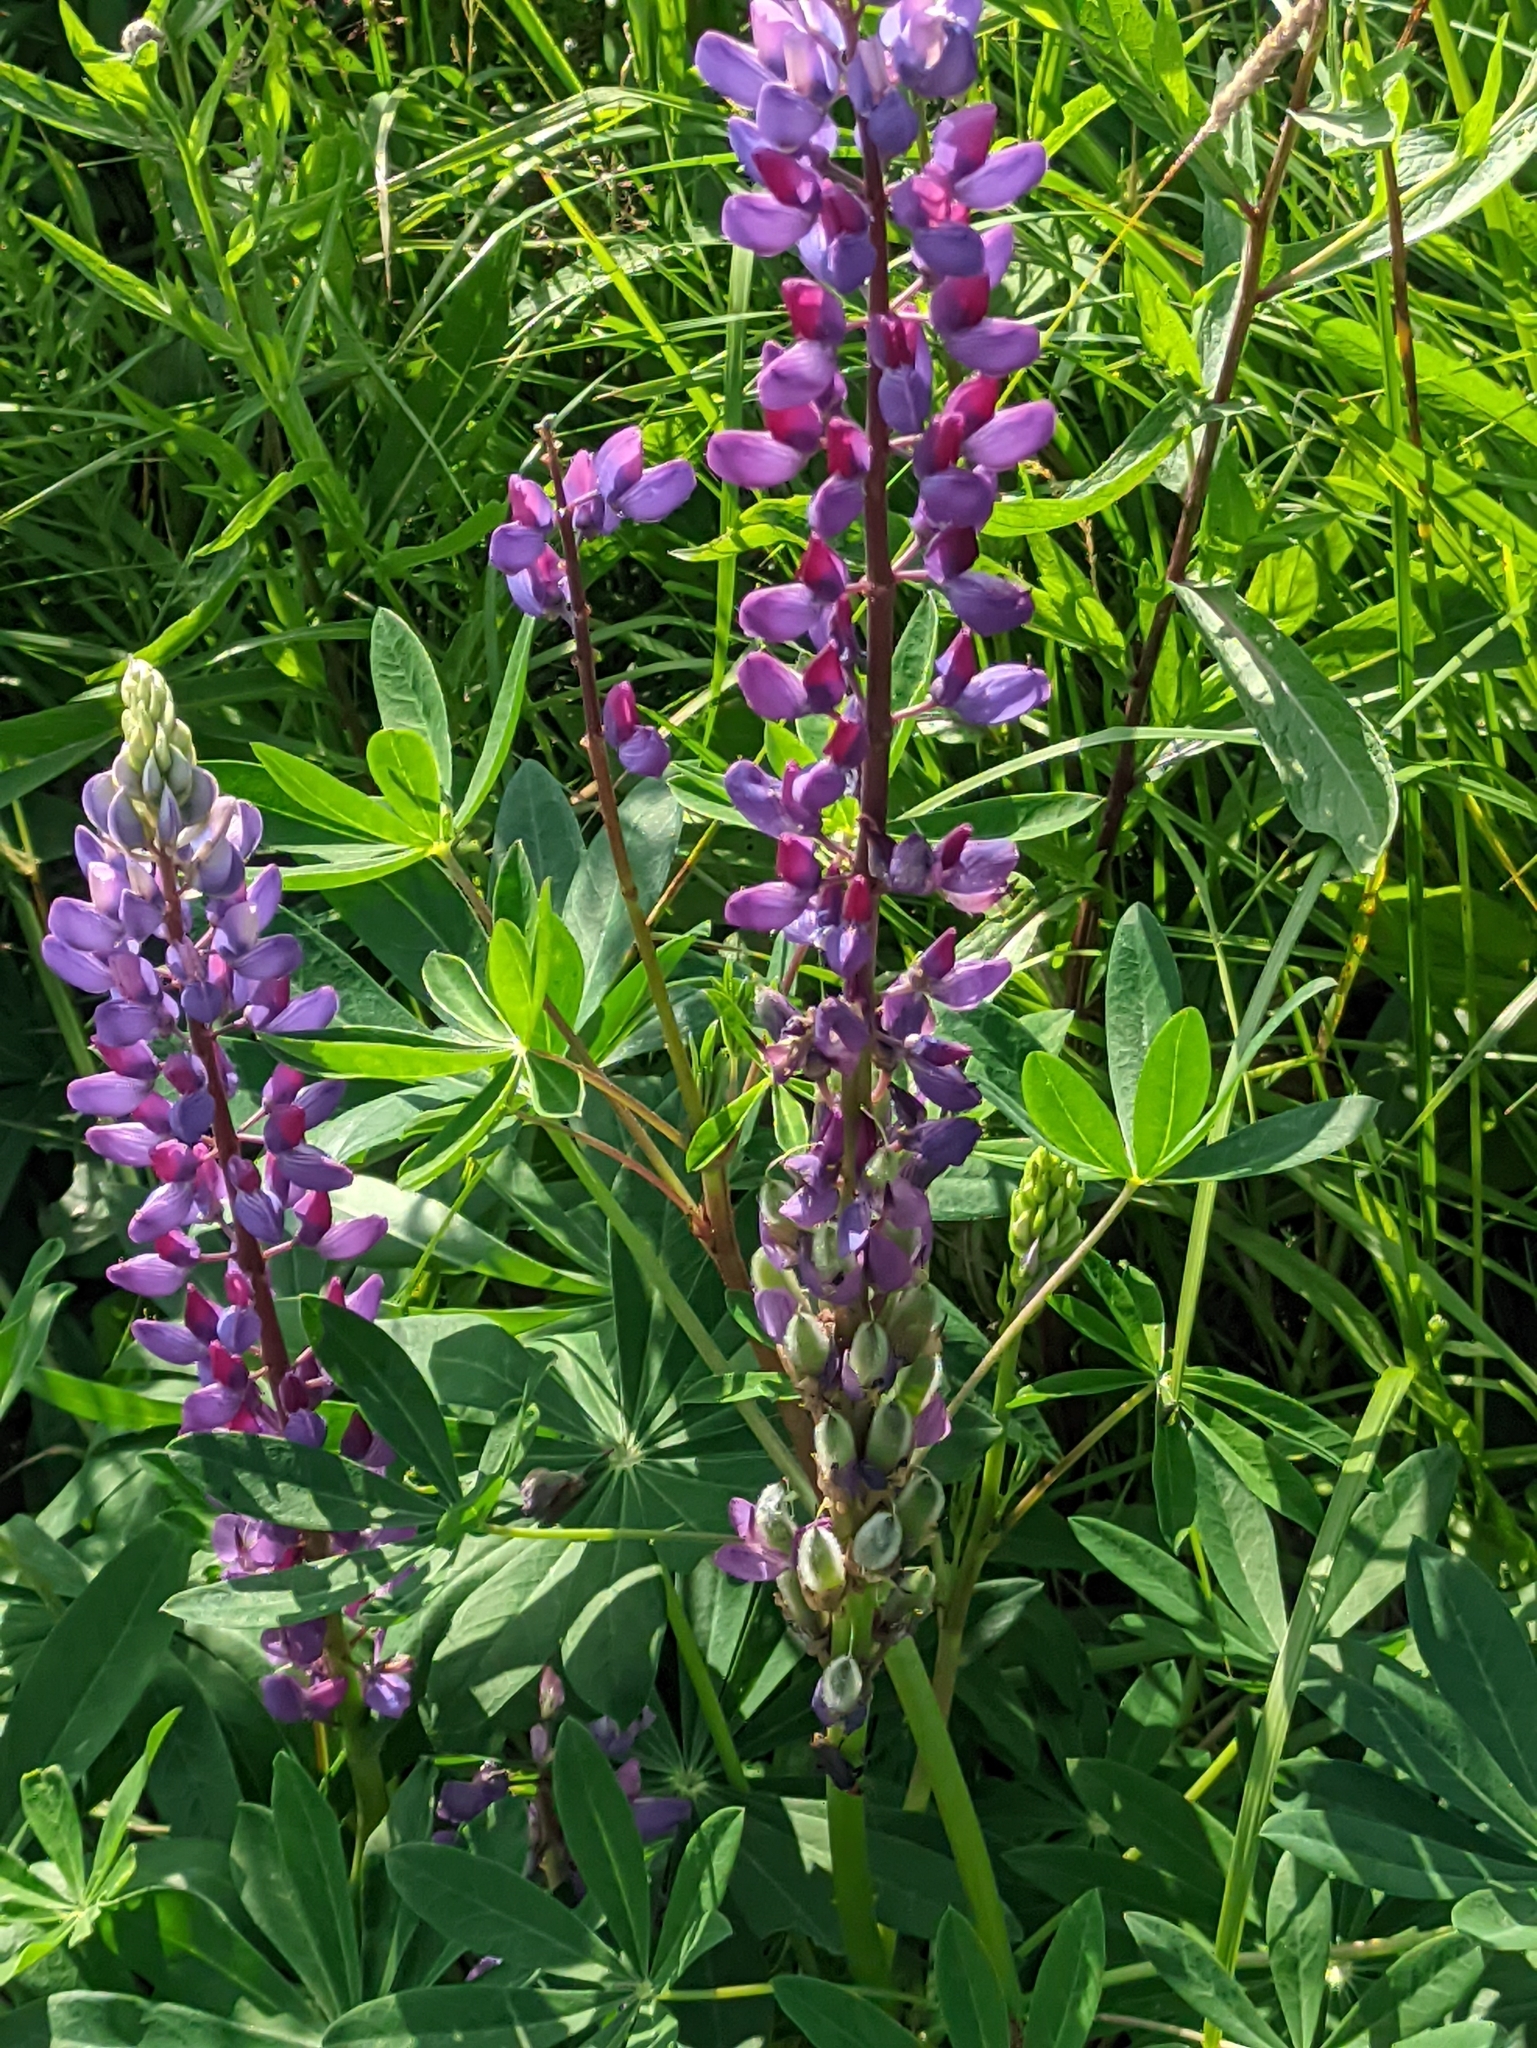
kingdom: Plantae
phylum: Tracheophyta
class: Magnoliopsida
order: Fabales
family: Fabaceae
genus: Lupinus
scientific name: Lupinus polyphyllus
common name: Garden lupin
